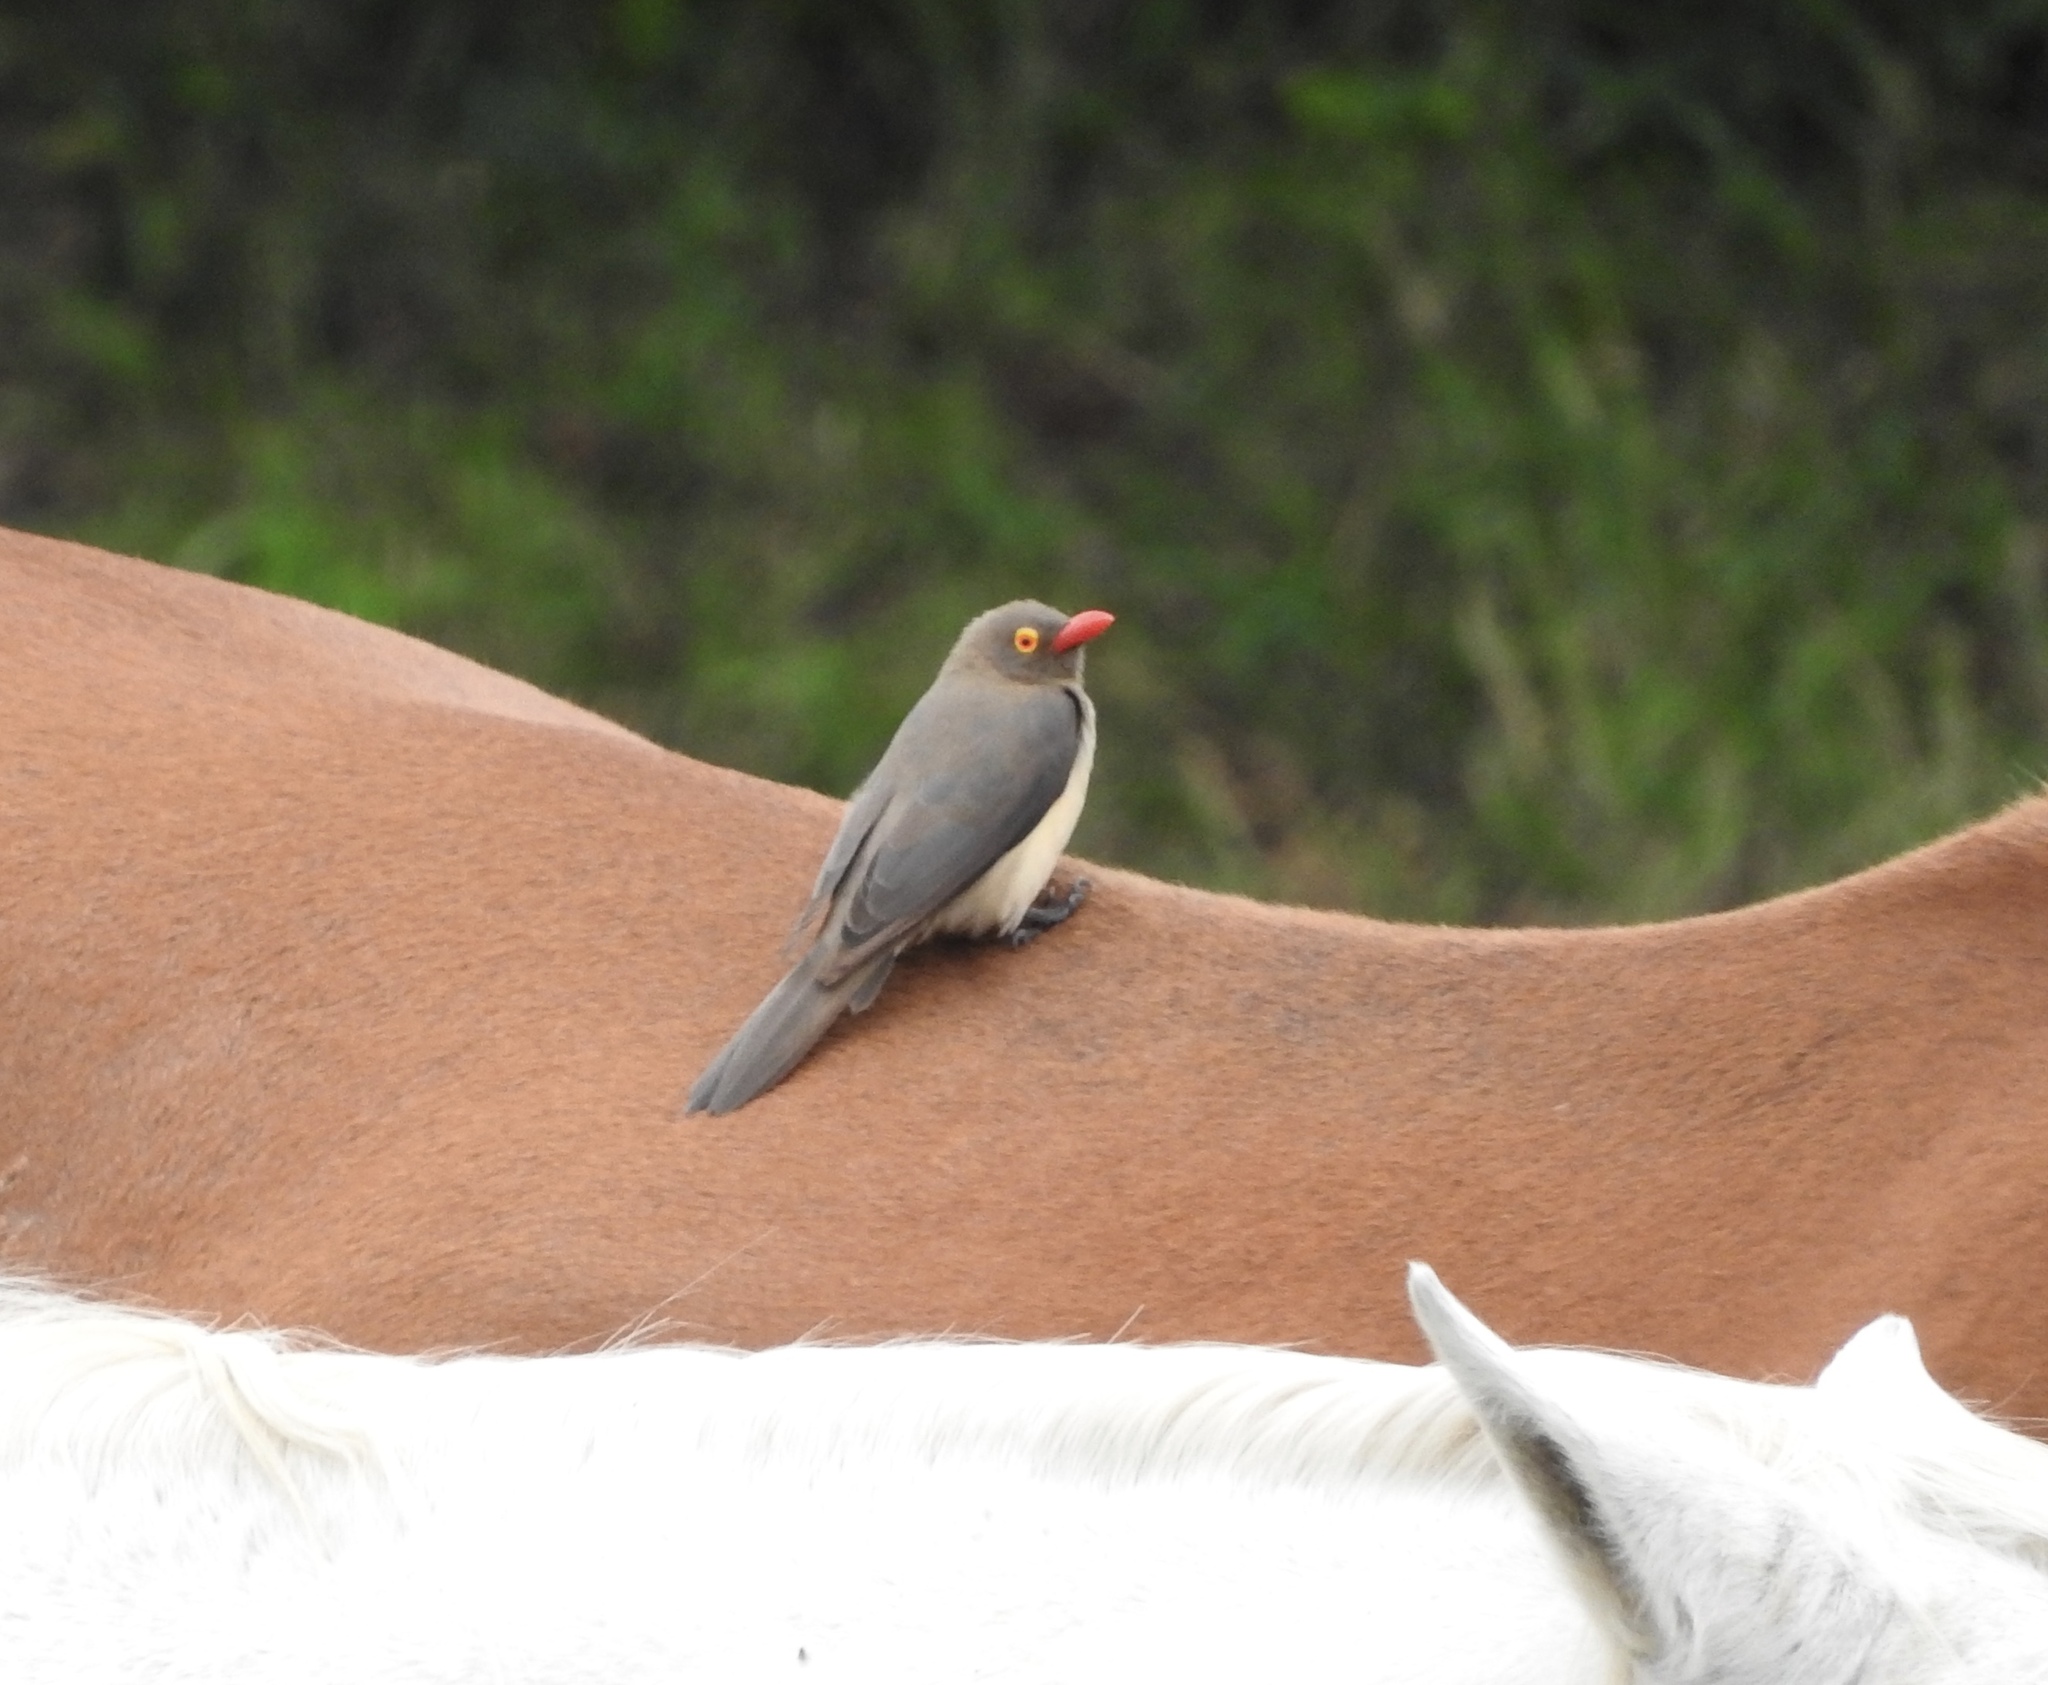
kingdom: Animalia
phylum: Chordata
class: Aves
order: Passeriformes
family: Buphagidae
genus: Buphagus
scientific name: Buphagus erythrorhynchus
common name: Red-billed oxpecker
